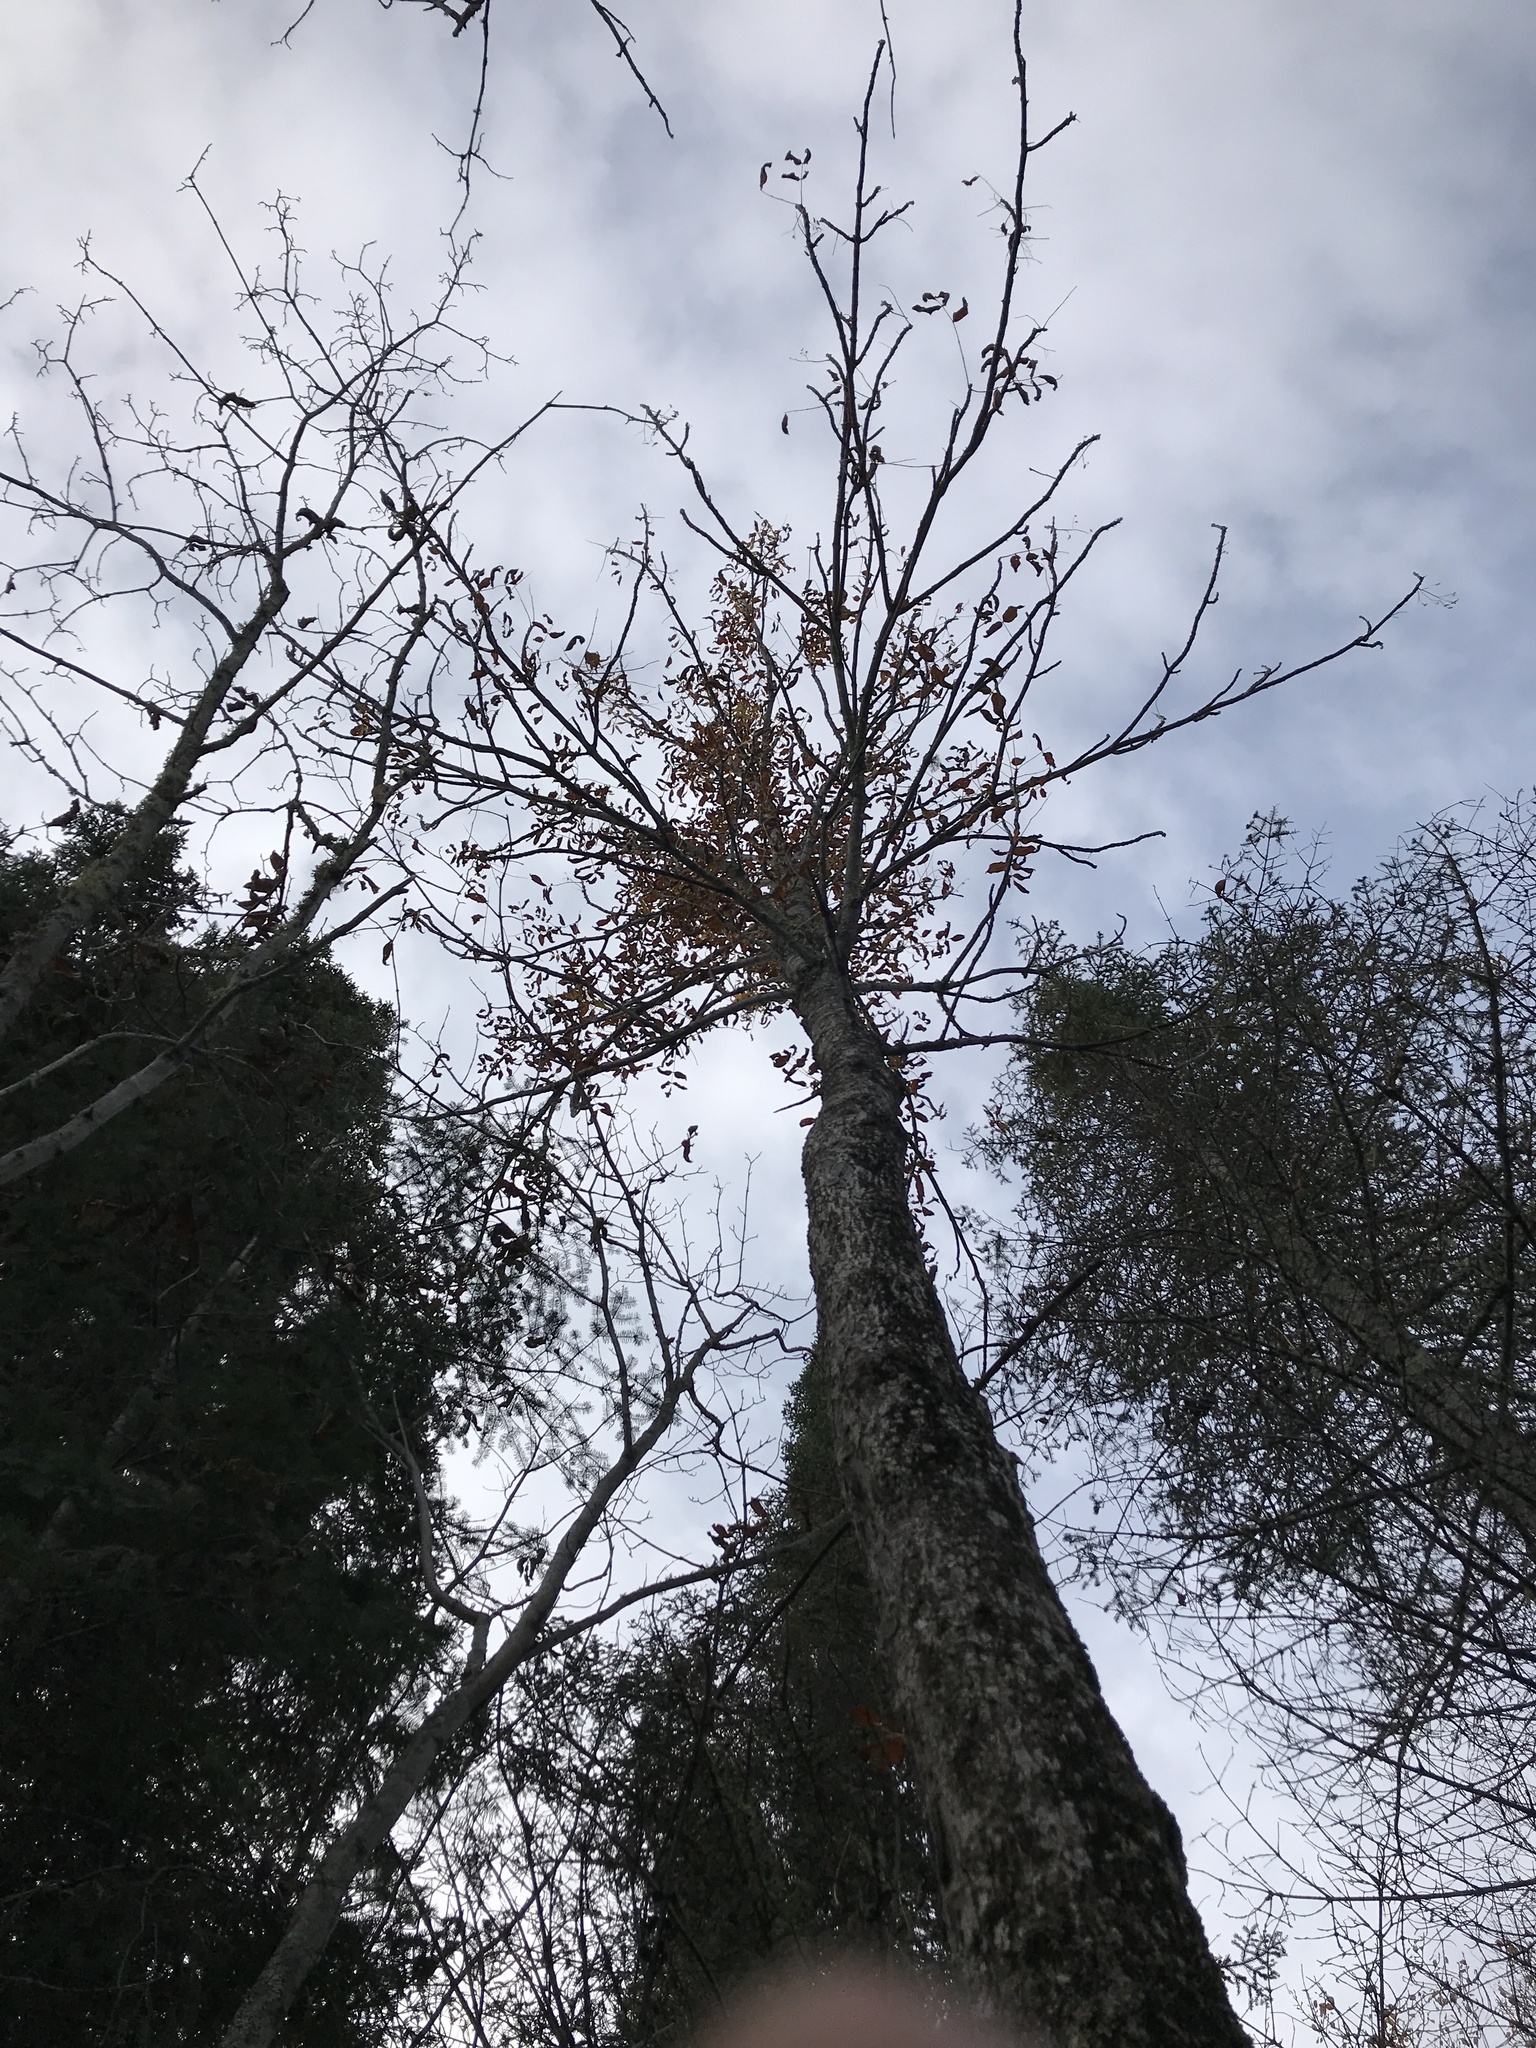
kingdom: Plantae
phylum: Tracheophyta
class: Magnoliopsida
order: Lamiales
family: Oleaceae
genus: Fraxinus
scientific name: Fraxinus nigra
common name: Black ash
